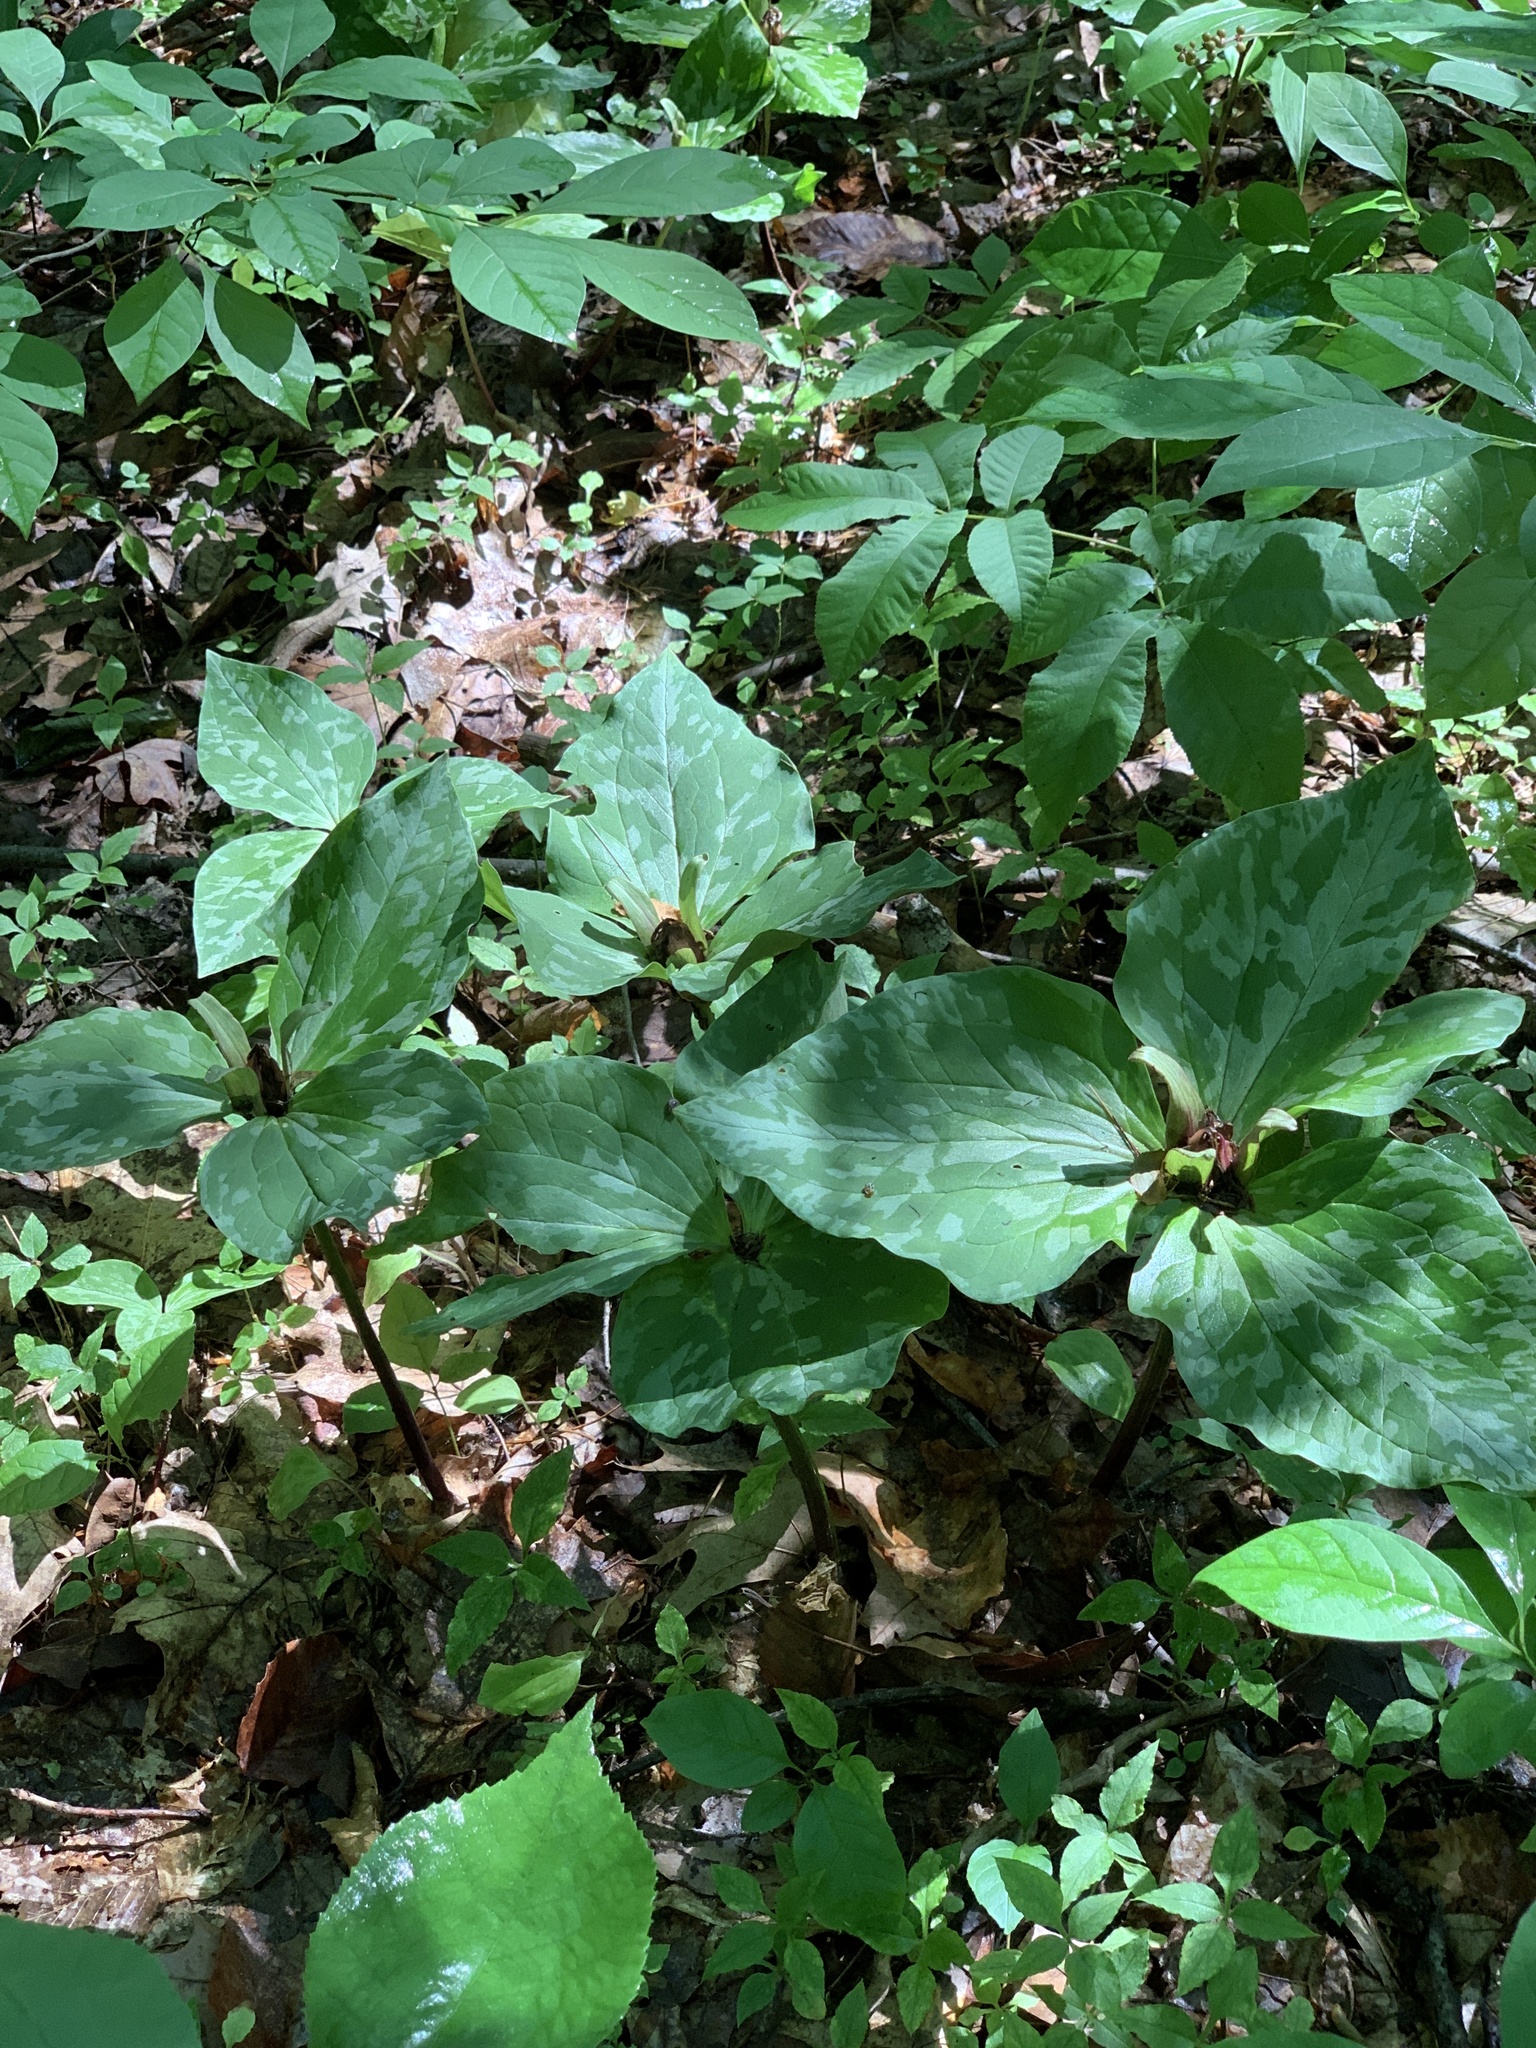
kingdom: Plantae
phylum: Tracheophyta
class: Liliopsida
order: Liliales
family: Melanthiaceae
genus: Trillium
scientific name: Trillium cuneatum
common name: Cuneate trillium
